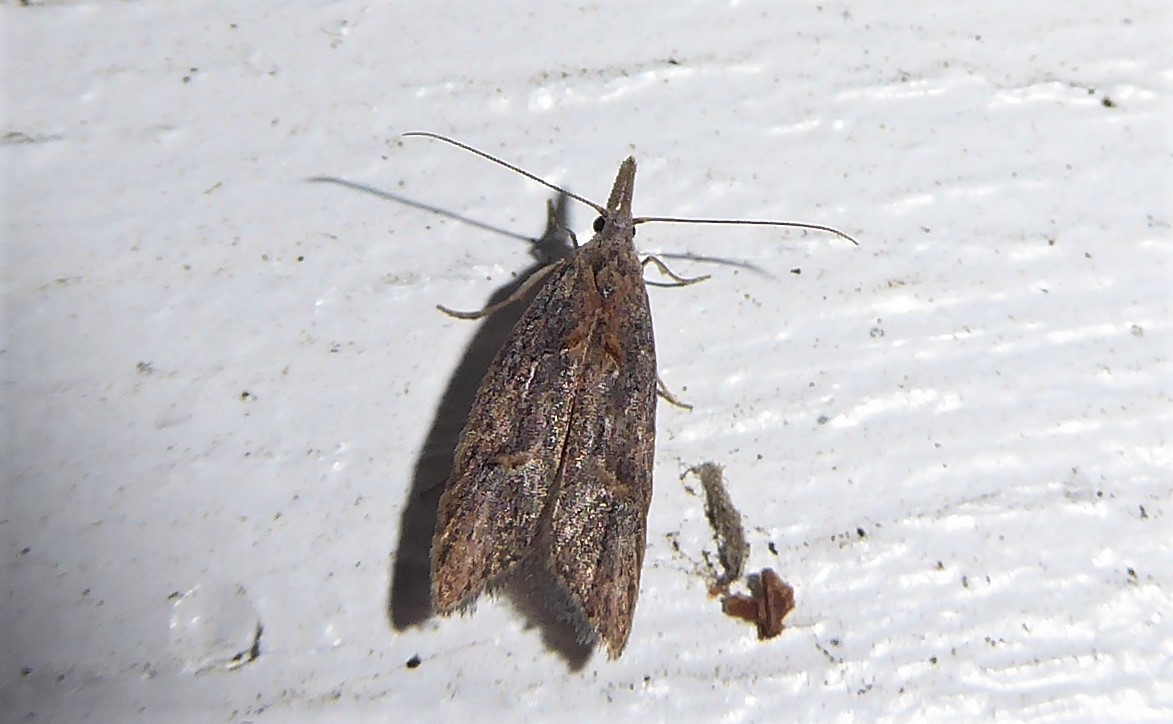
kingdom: Animalia
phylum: Arthropoda
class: Insecta
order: Lepidoptera
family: Carposinidae
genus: Carposina
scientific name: Carposina rubophaga
